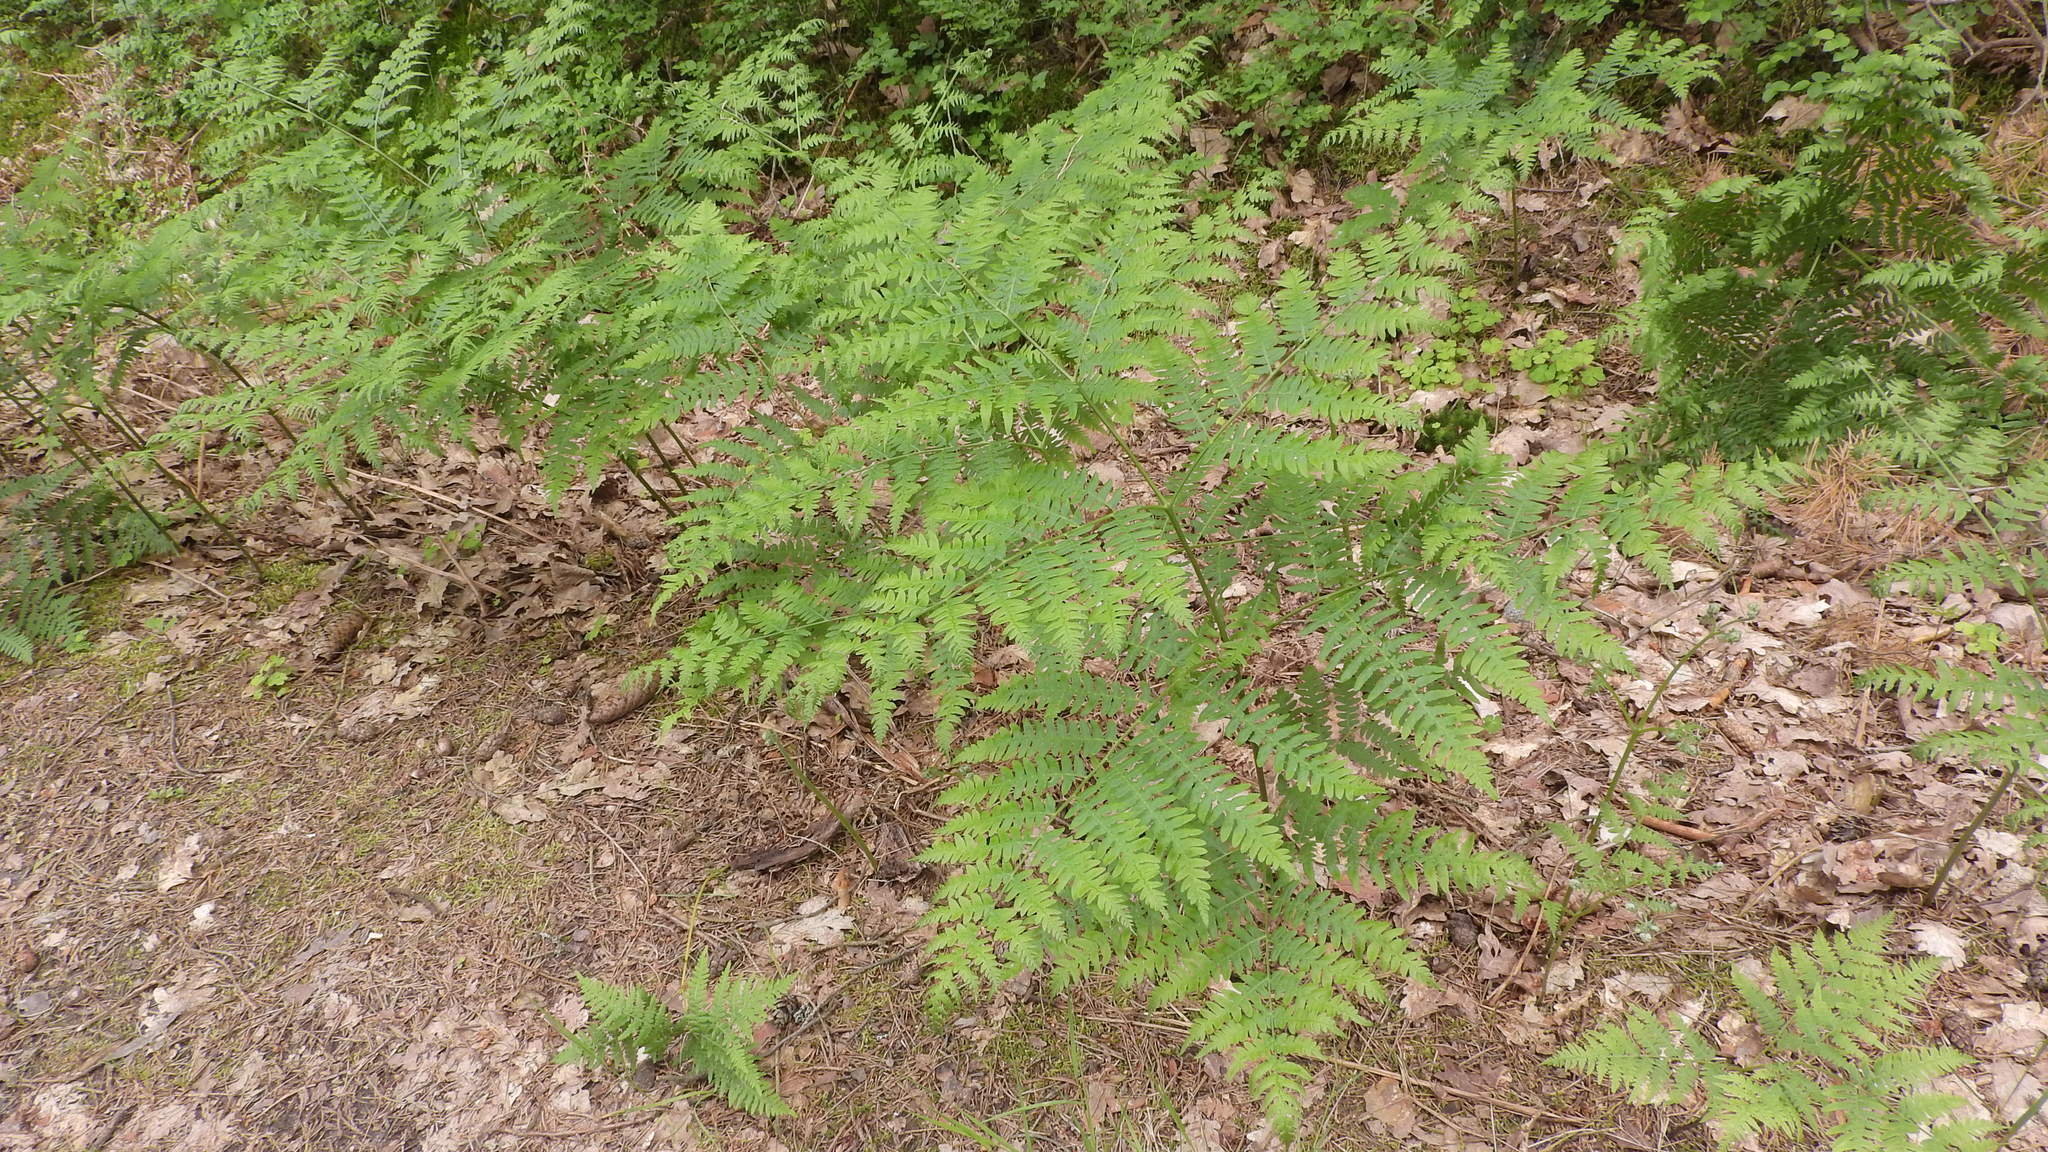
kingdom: Plantae
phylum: Tracheophyta
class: Polypodiopsida
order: Polypodiales
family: Dennstaedtiaceae
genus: Pteridium
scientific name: Pteridium aquilinum
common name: Bracken
